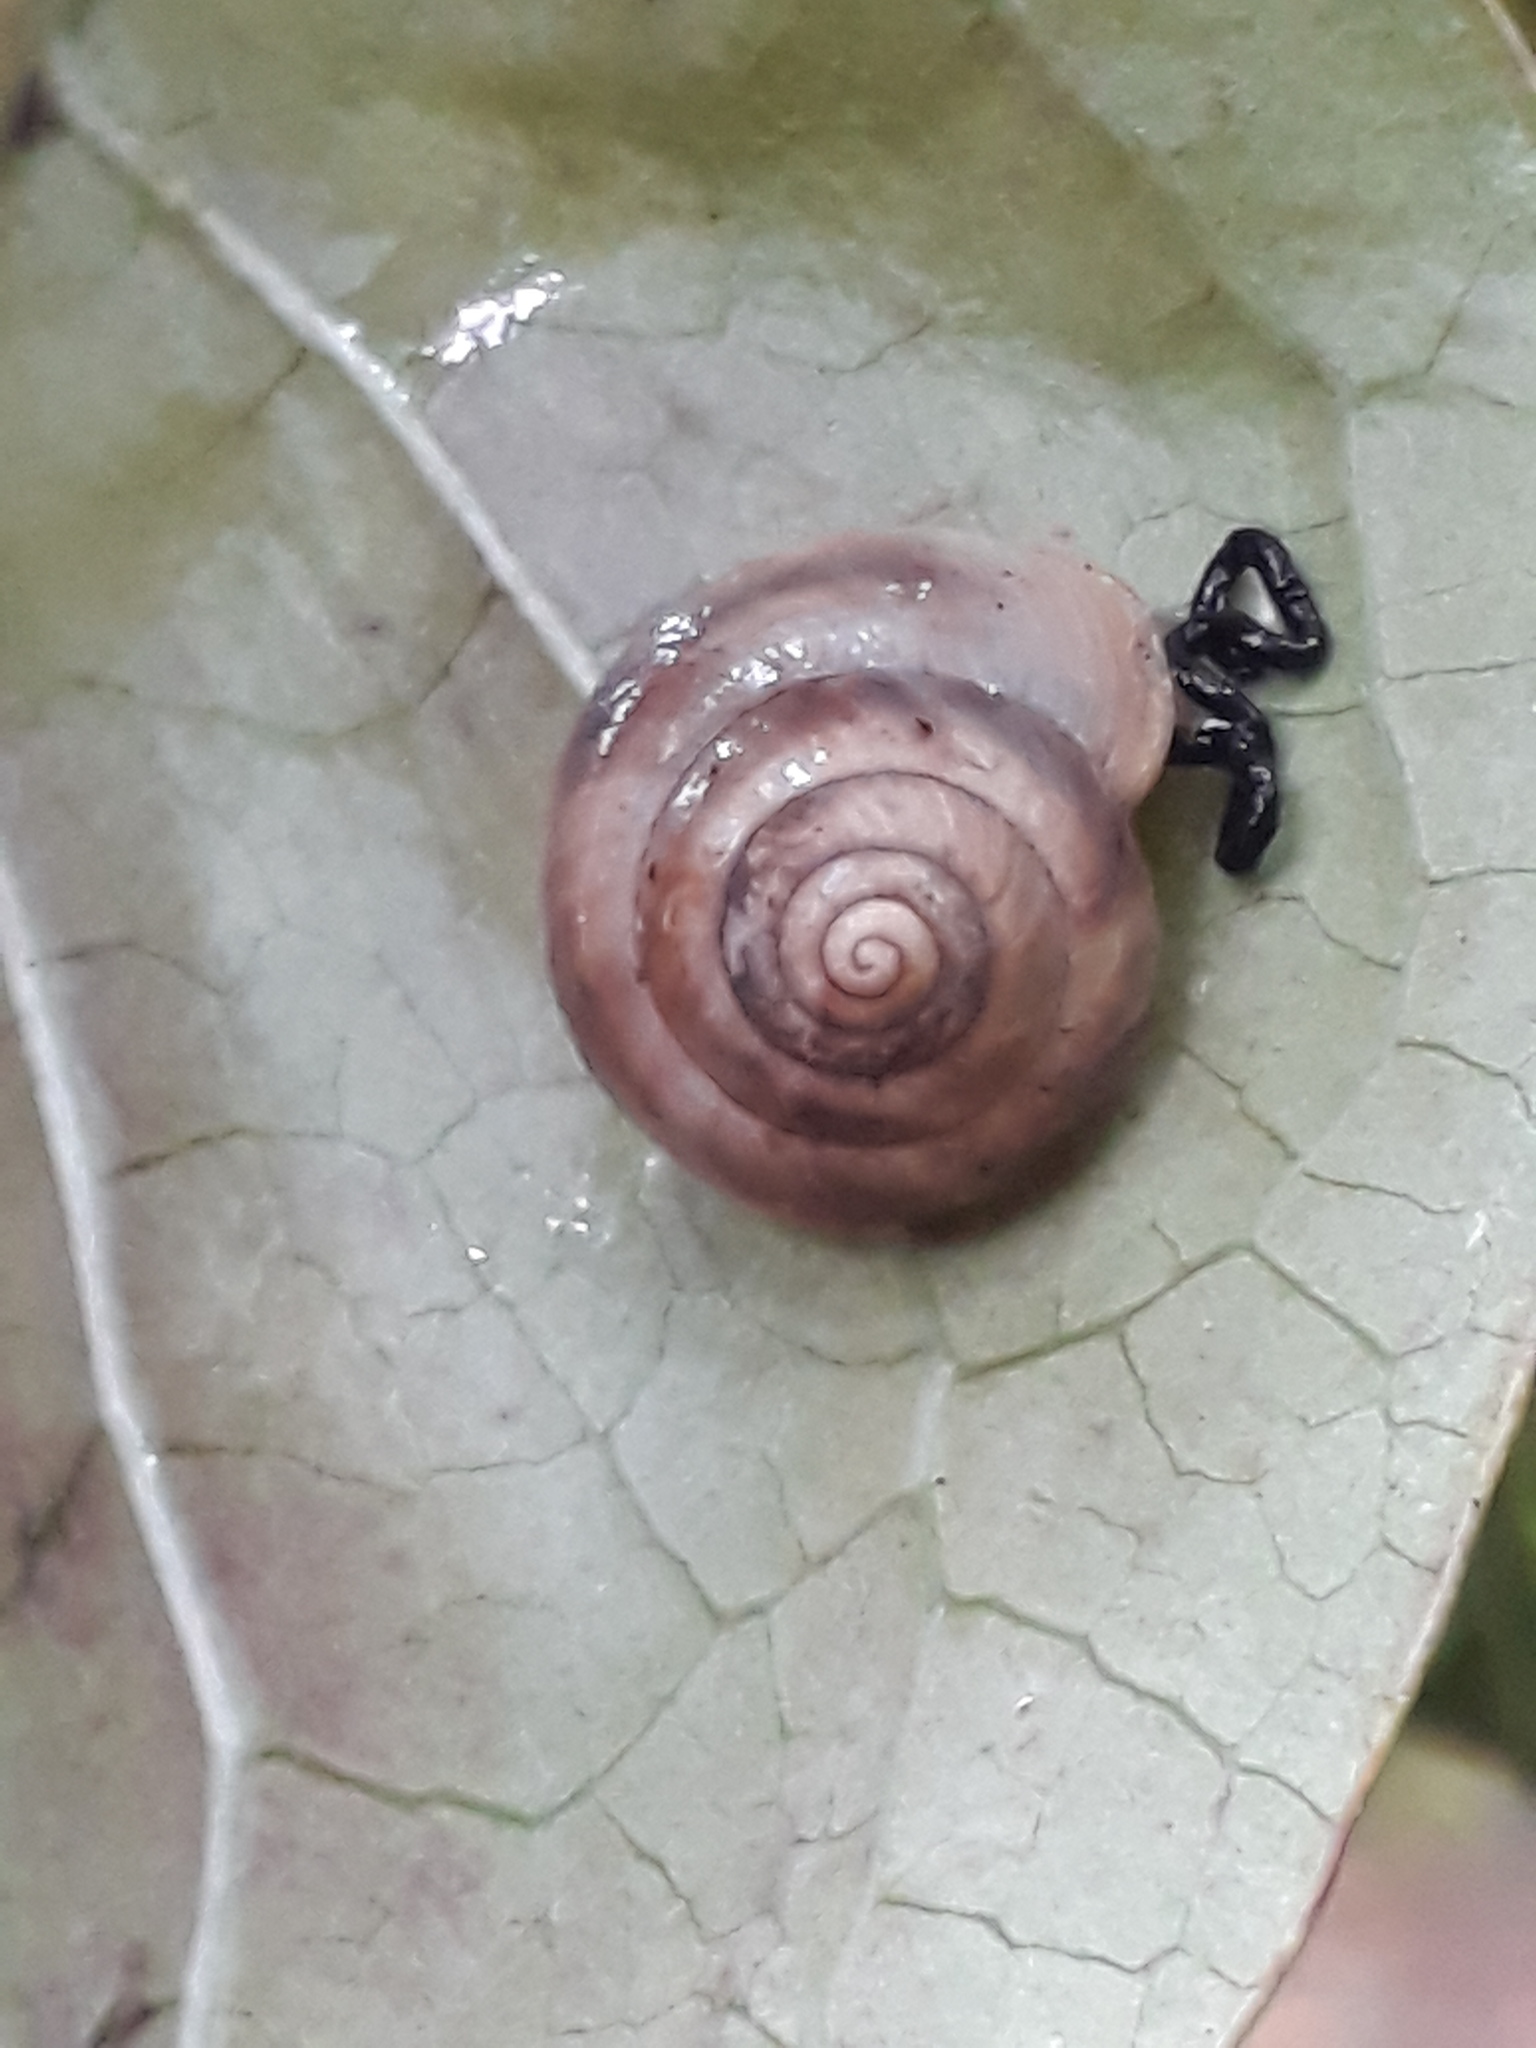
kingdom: Animalia
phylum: Mollusca
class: Gastropoda
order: Stylommatophora
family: Charopidae
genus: Serpho
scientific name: Serpho
